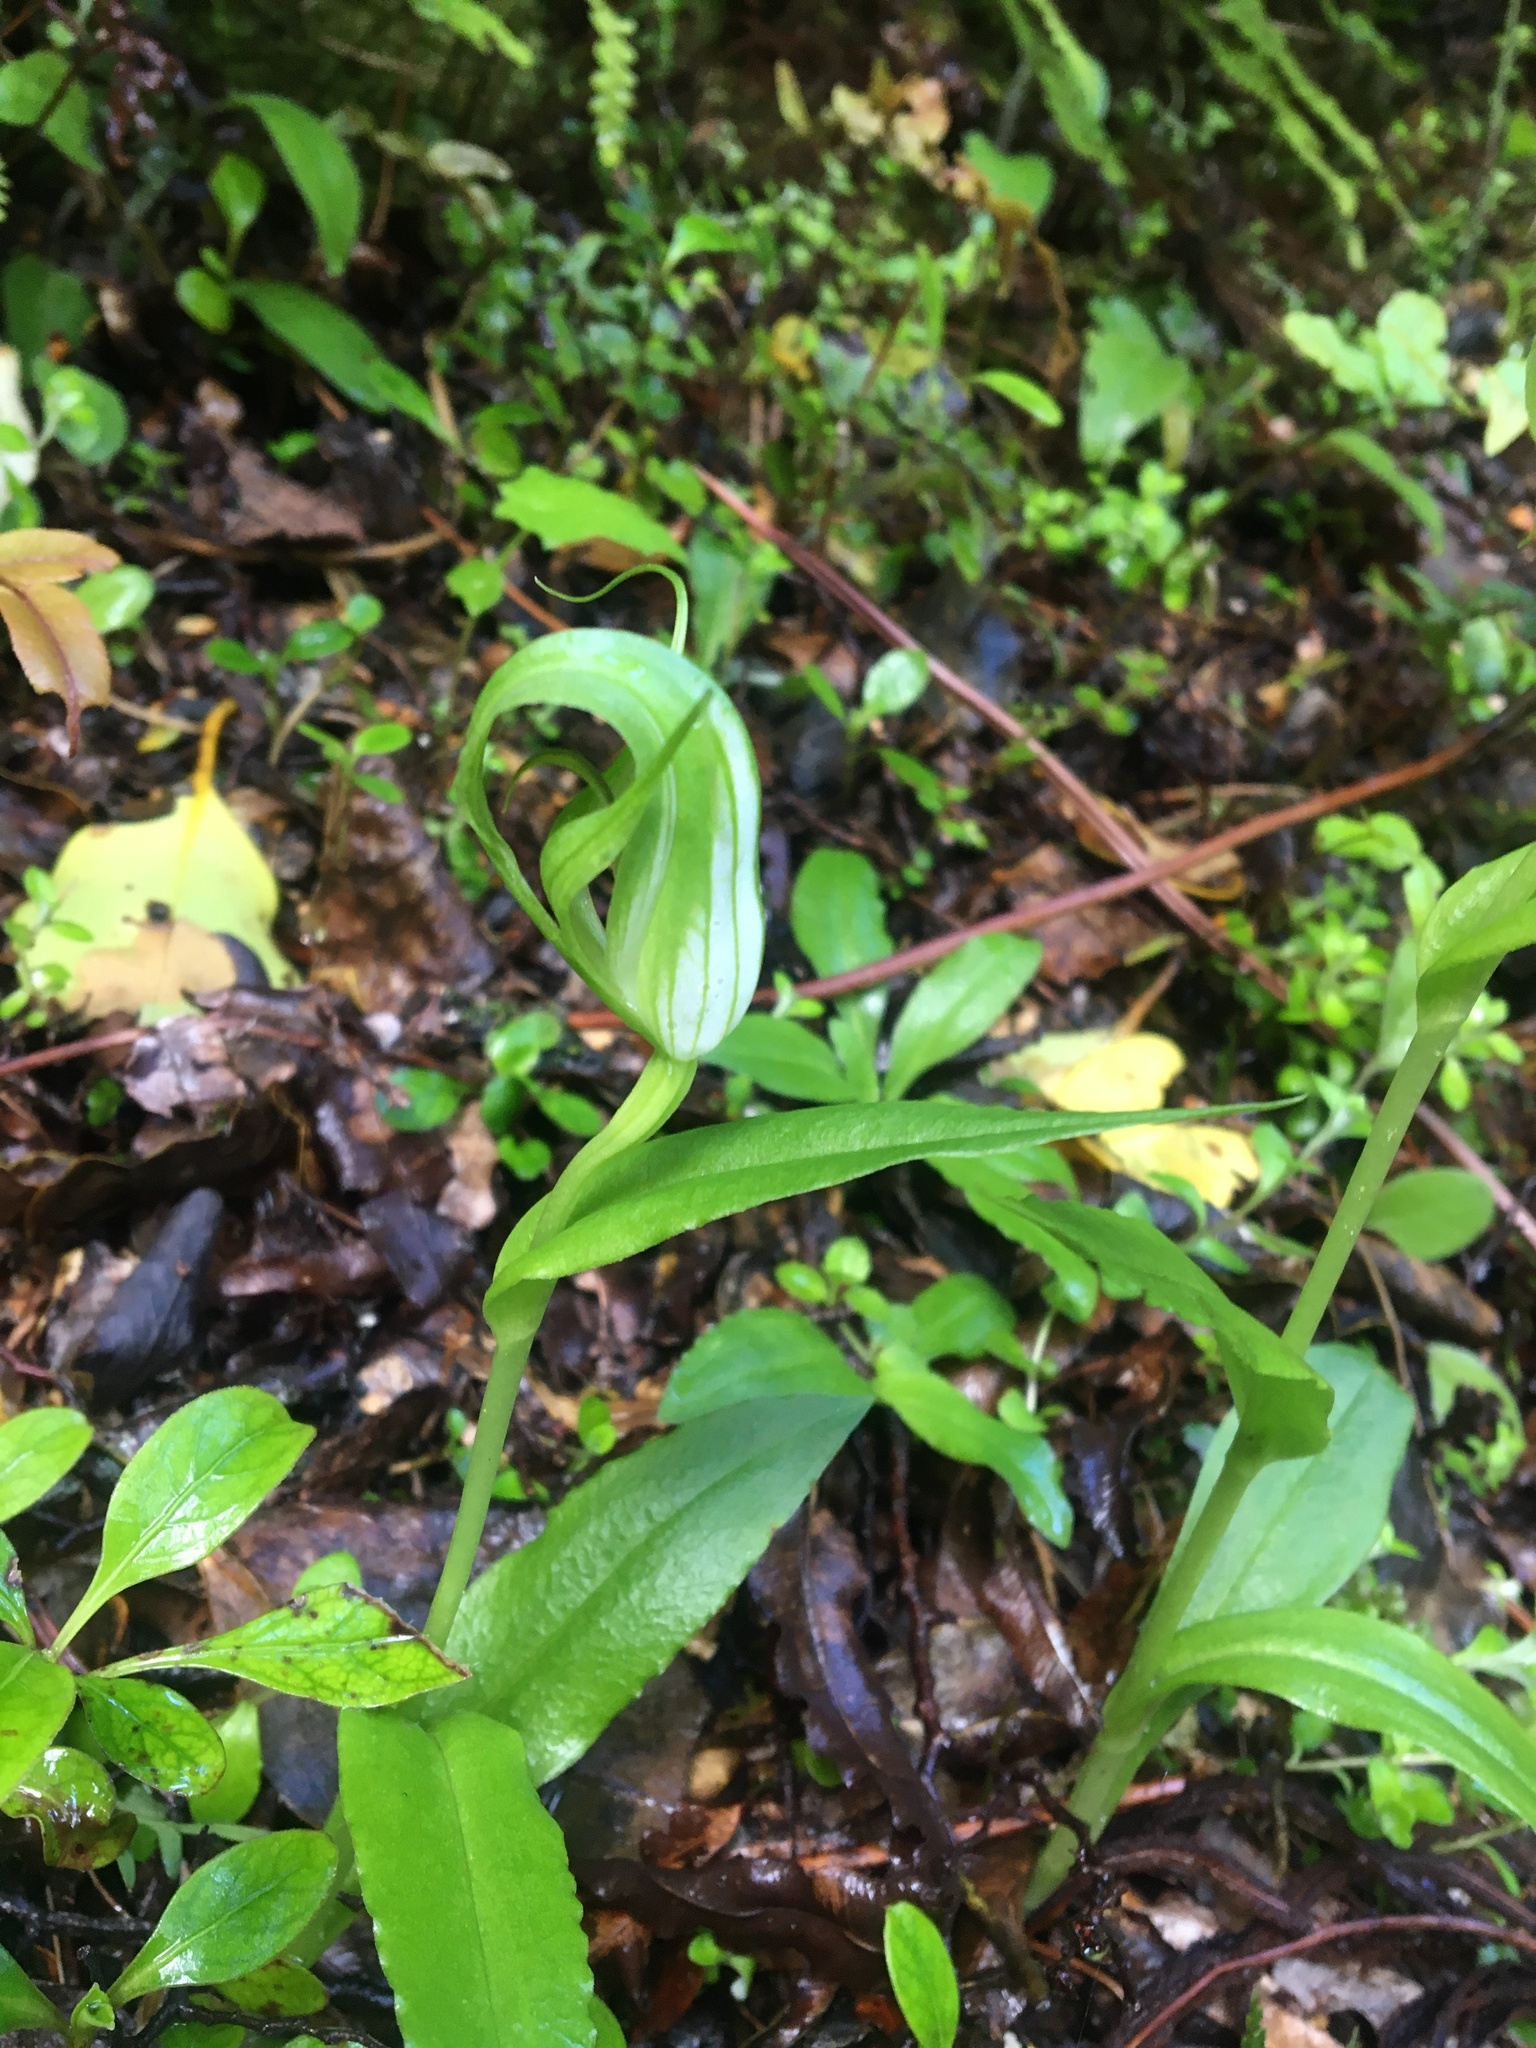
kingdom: Plantae
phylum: Tracheophyta
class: Liliopsida
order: Asparagales
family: Orchidaceae
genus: Pterostylis
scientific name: Pterostylis oliveri
